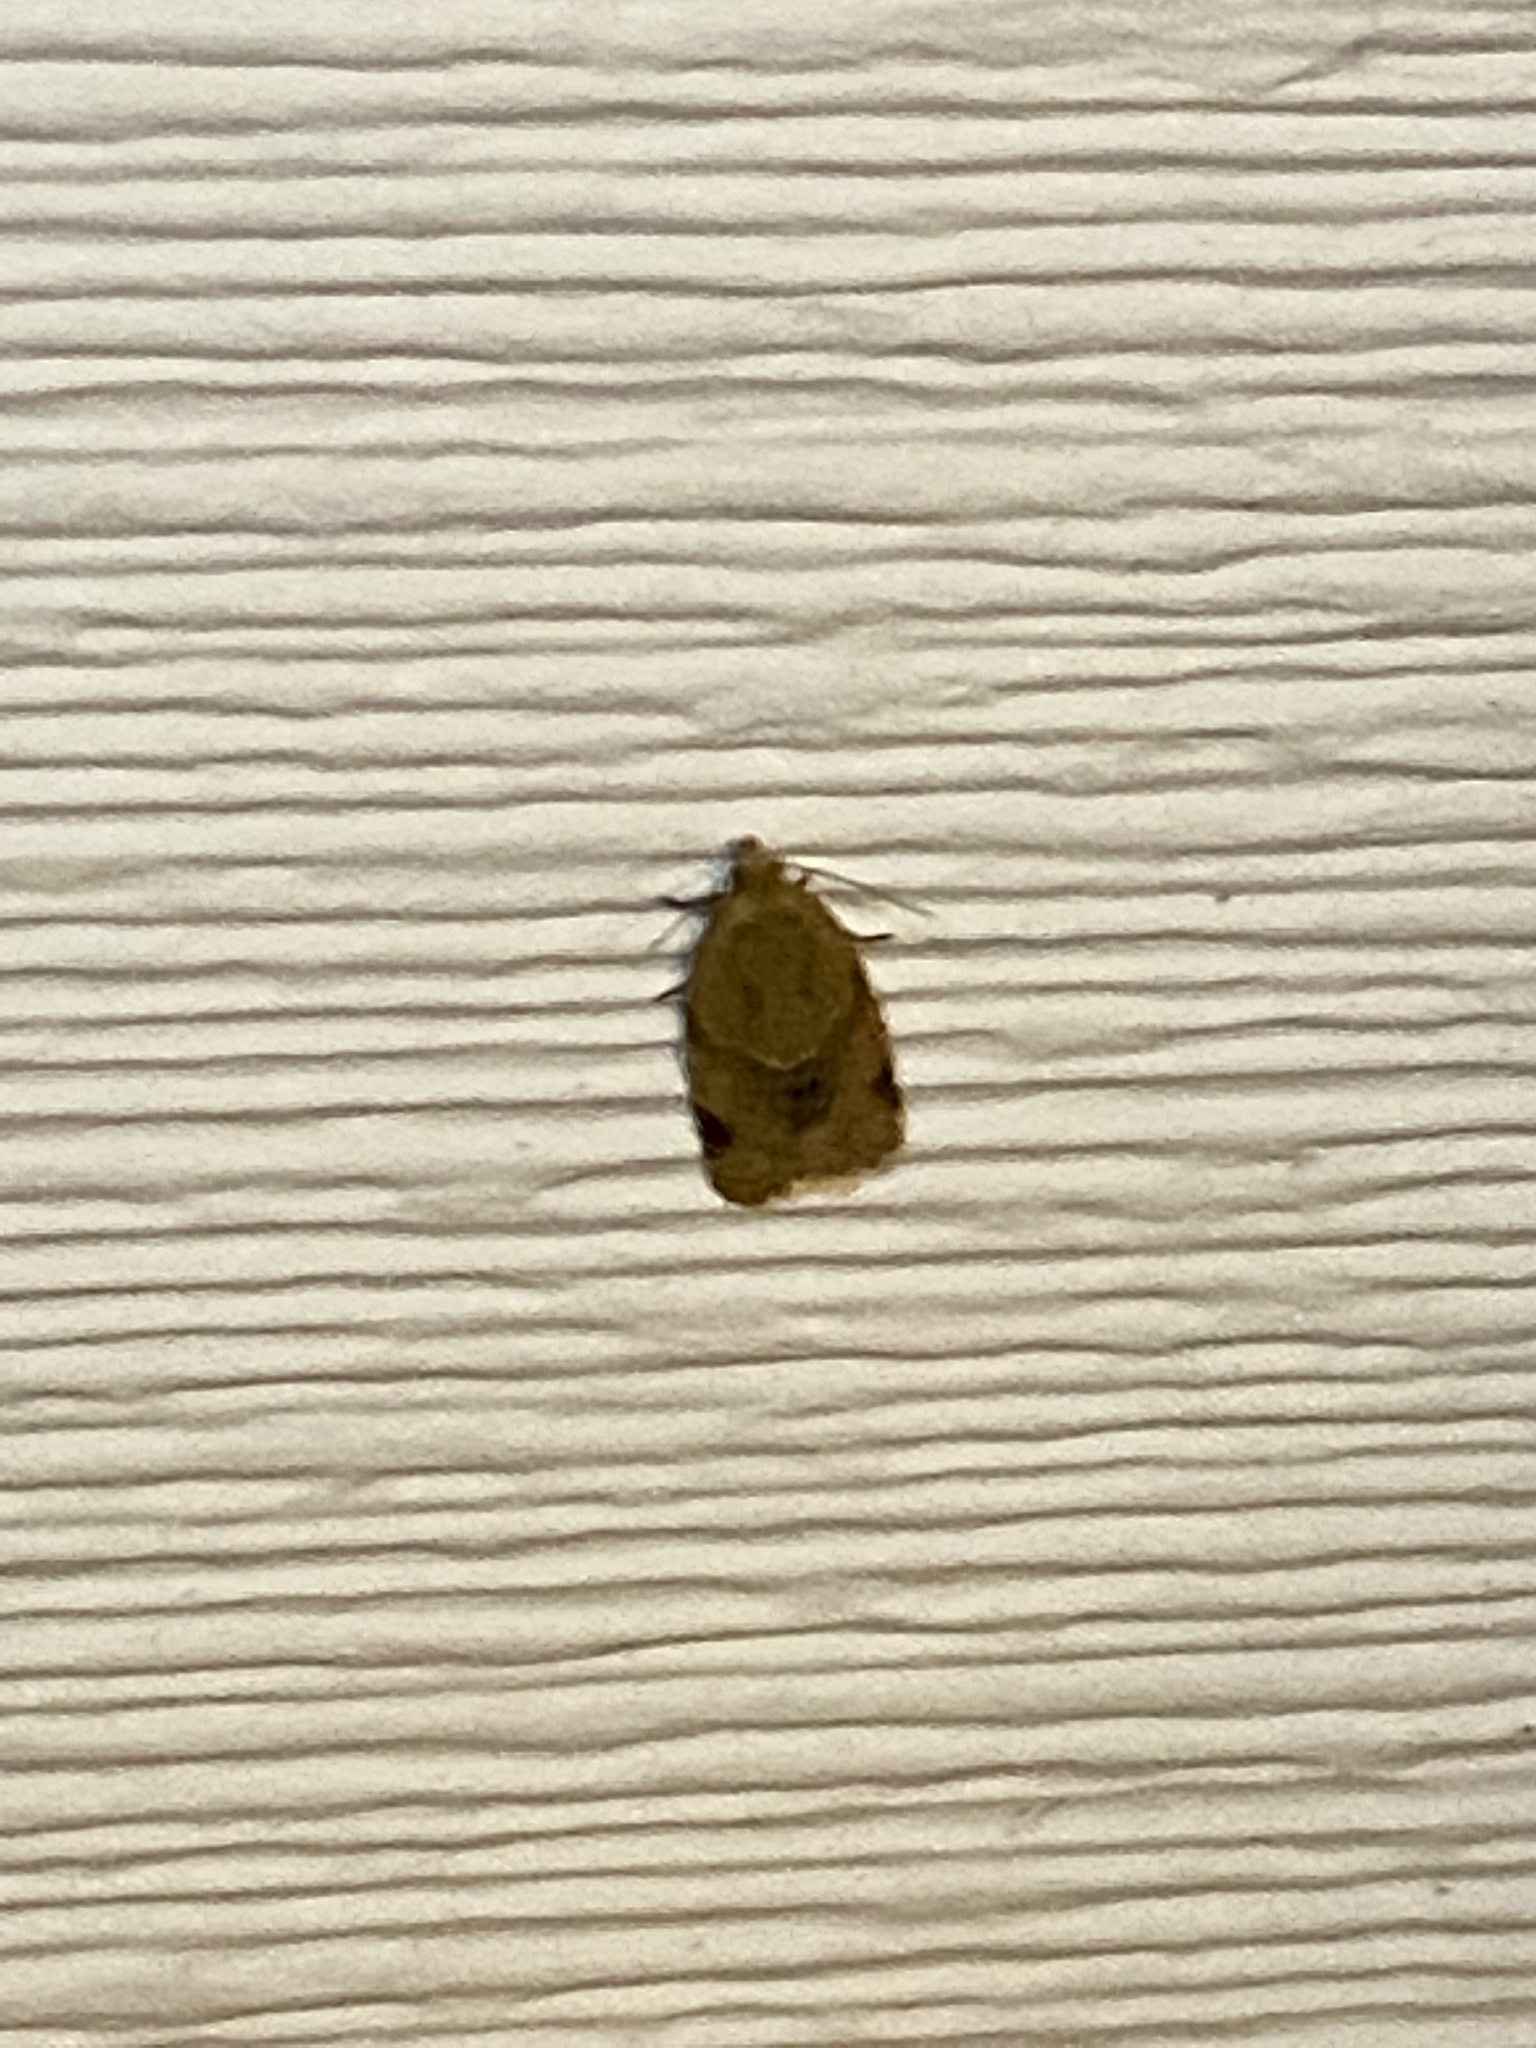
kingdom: Animalia
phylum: Arthropoda
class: Insecta
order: Lepidoptera
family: Tortricidae
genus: Clepsis
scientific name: Clepsis peritana
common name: Garden tortrix
